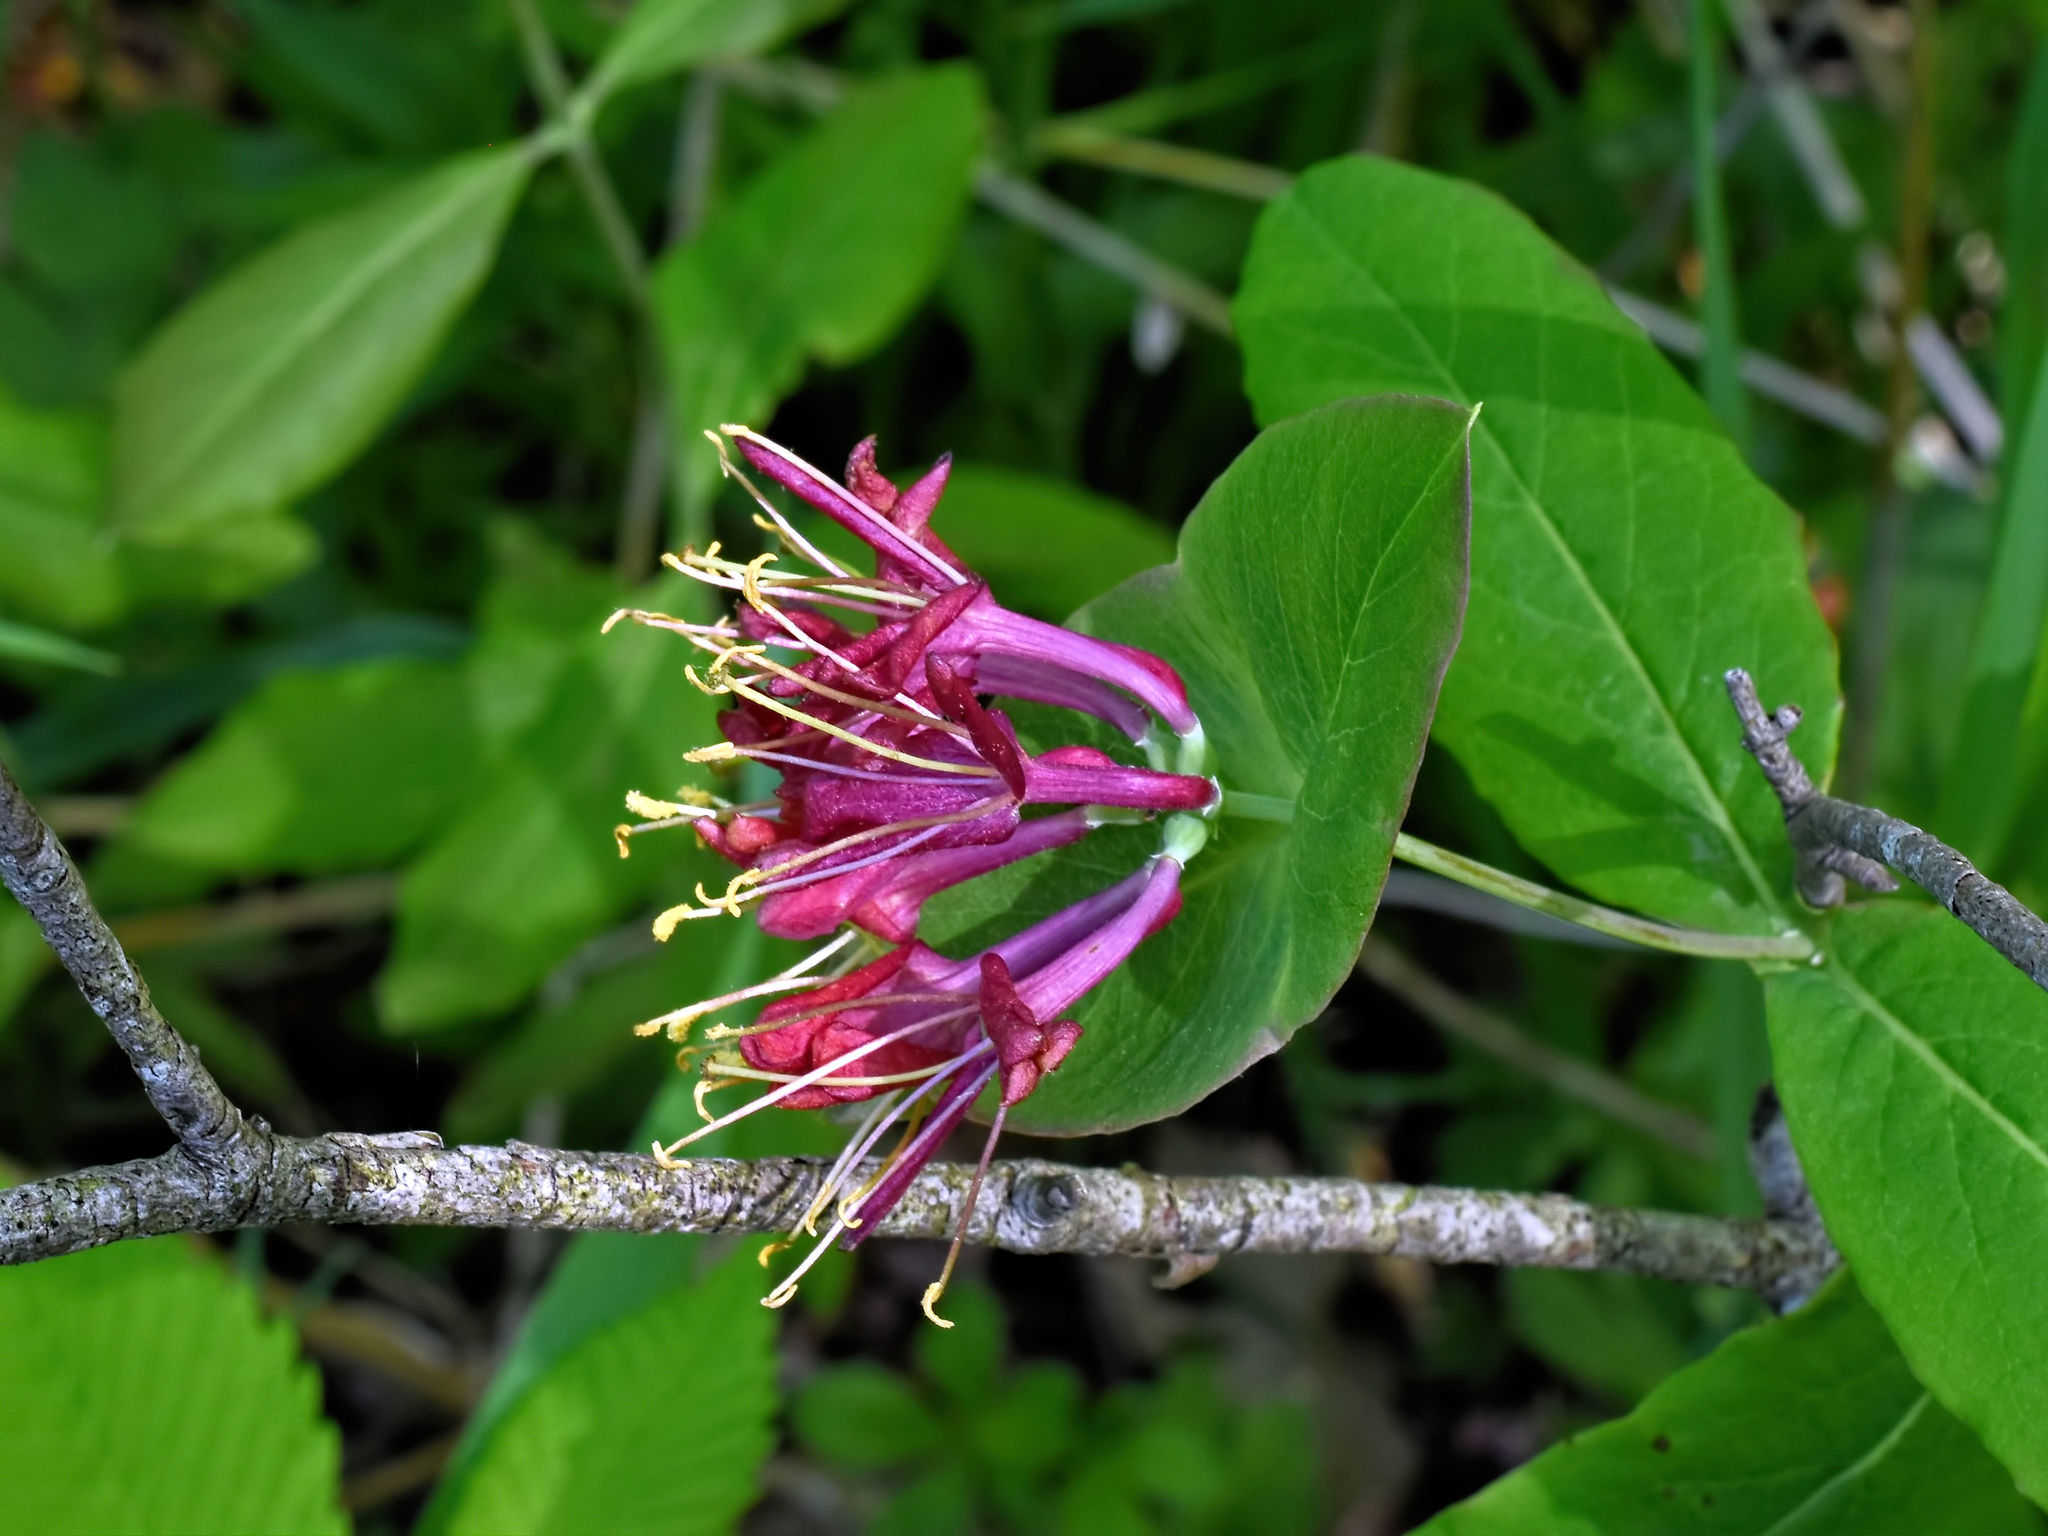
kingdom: Plantae
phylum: Tracheophyta
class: Magnoliopsida
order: Dipsacales
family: Caprifoliaceae
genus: Lonicera
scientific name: Lonicera dioica
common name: Limber honeysuckle
